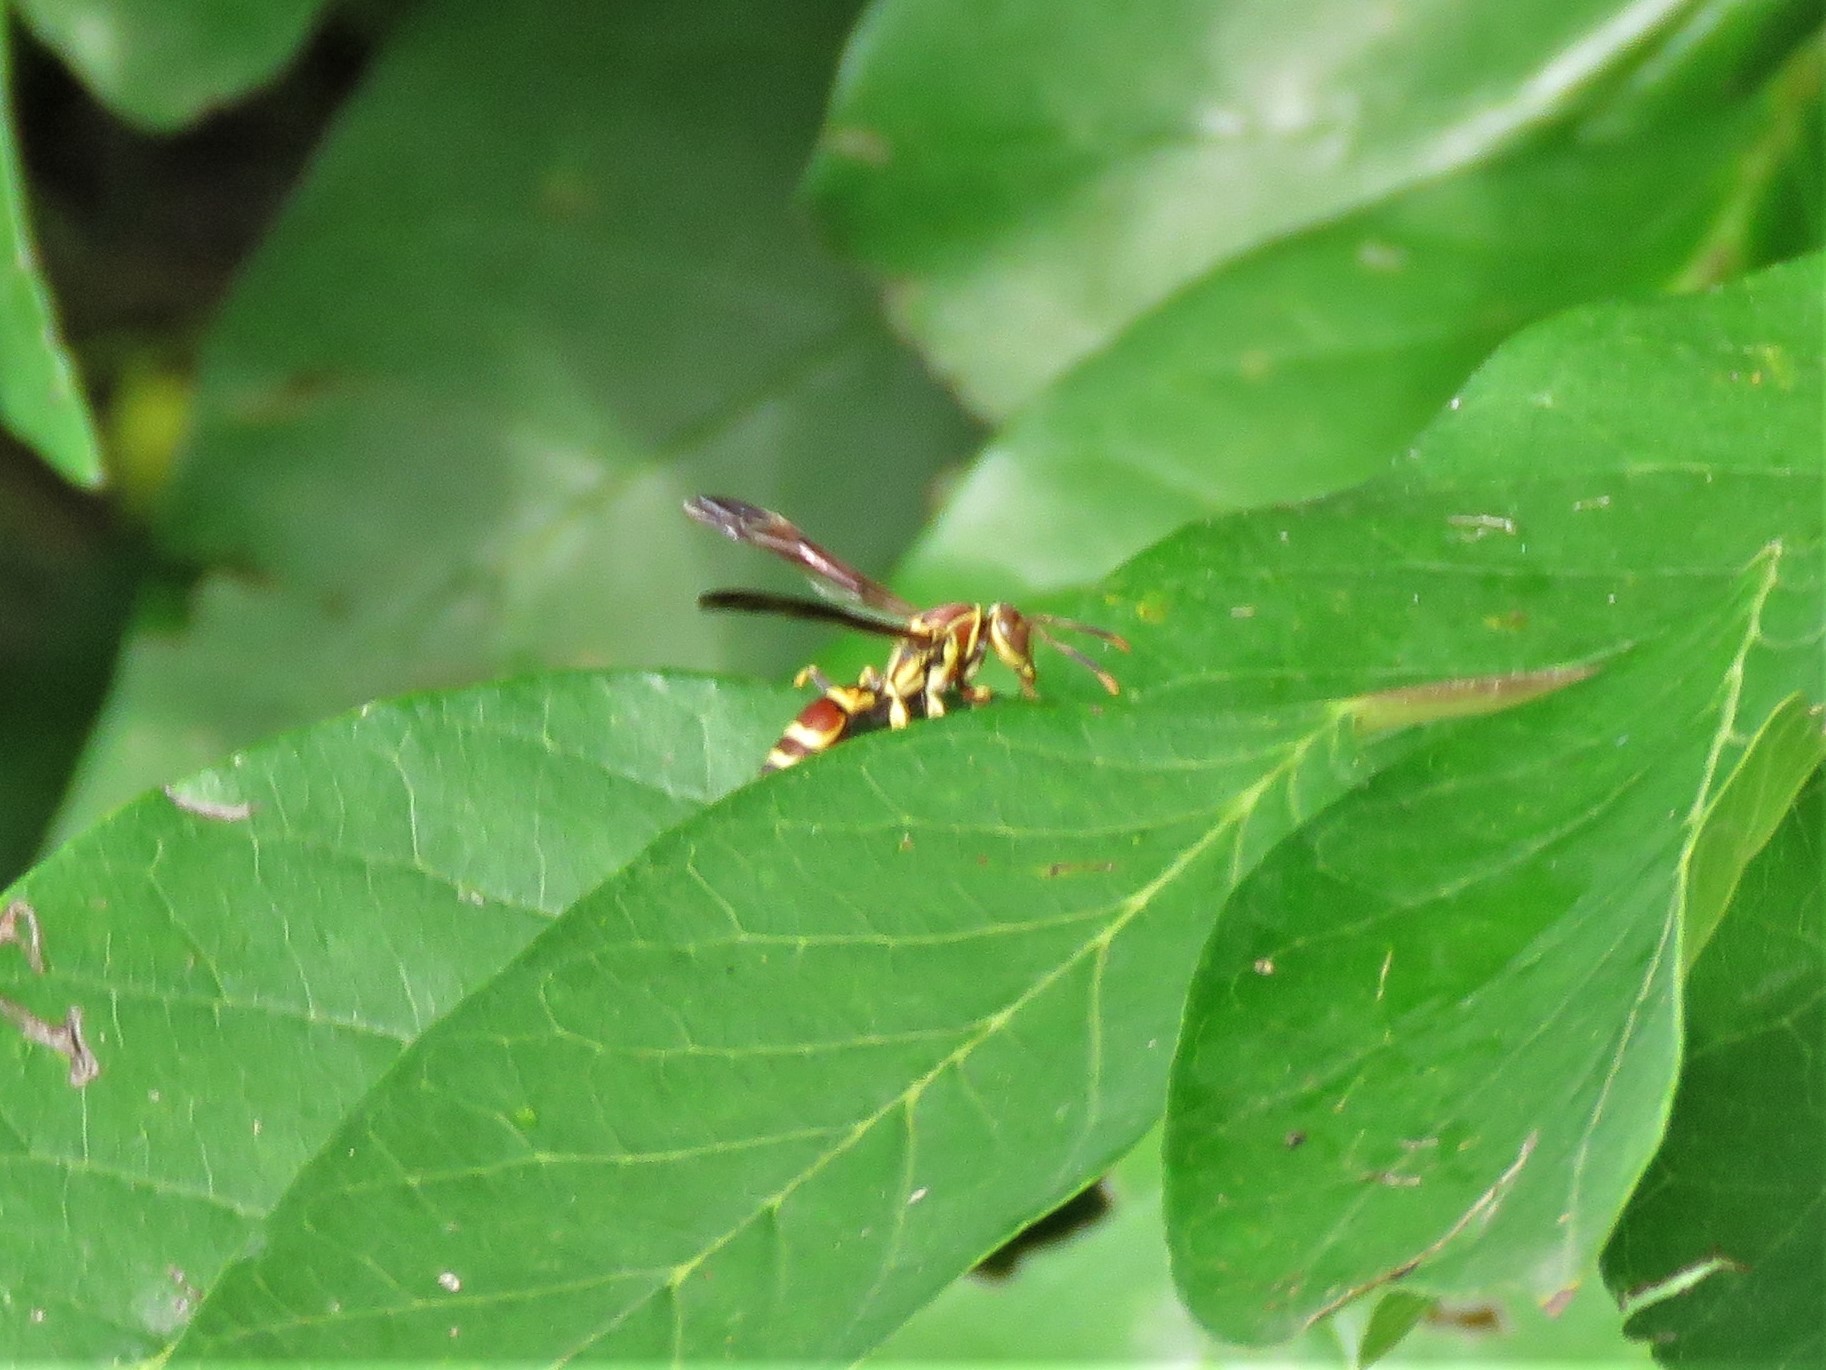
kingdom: Animalia
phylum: Arthropoda
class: Insecta
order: Hymenoptera
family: Eumenidae
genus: Polistes
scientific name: Polistes exclamans
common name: Paper wasp
